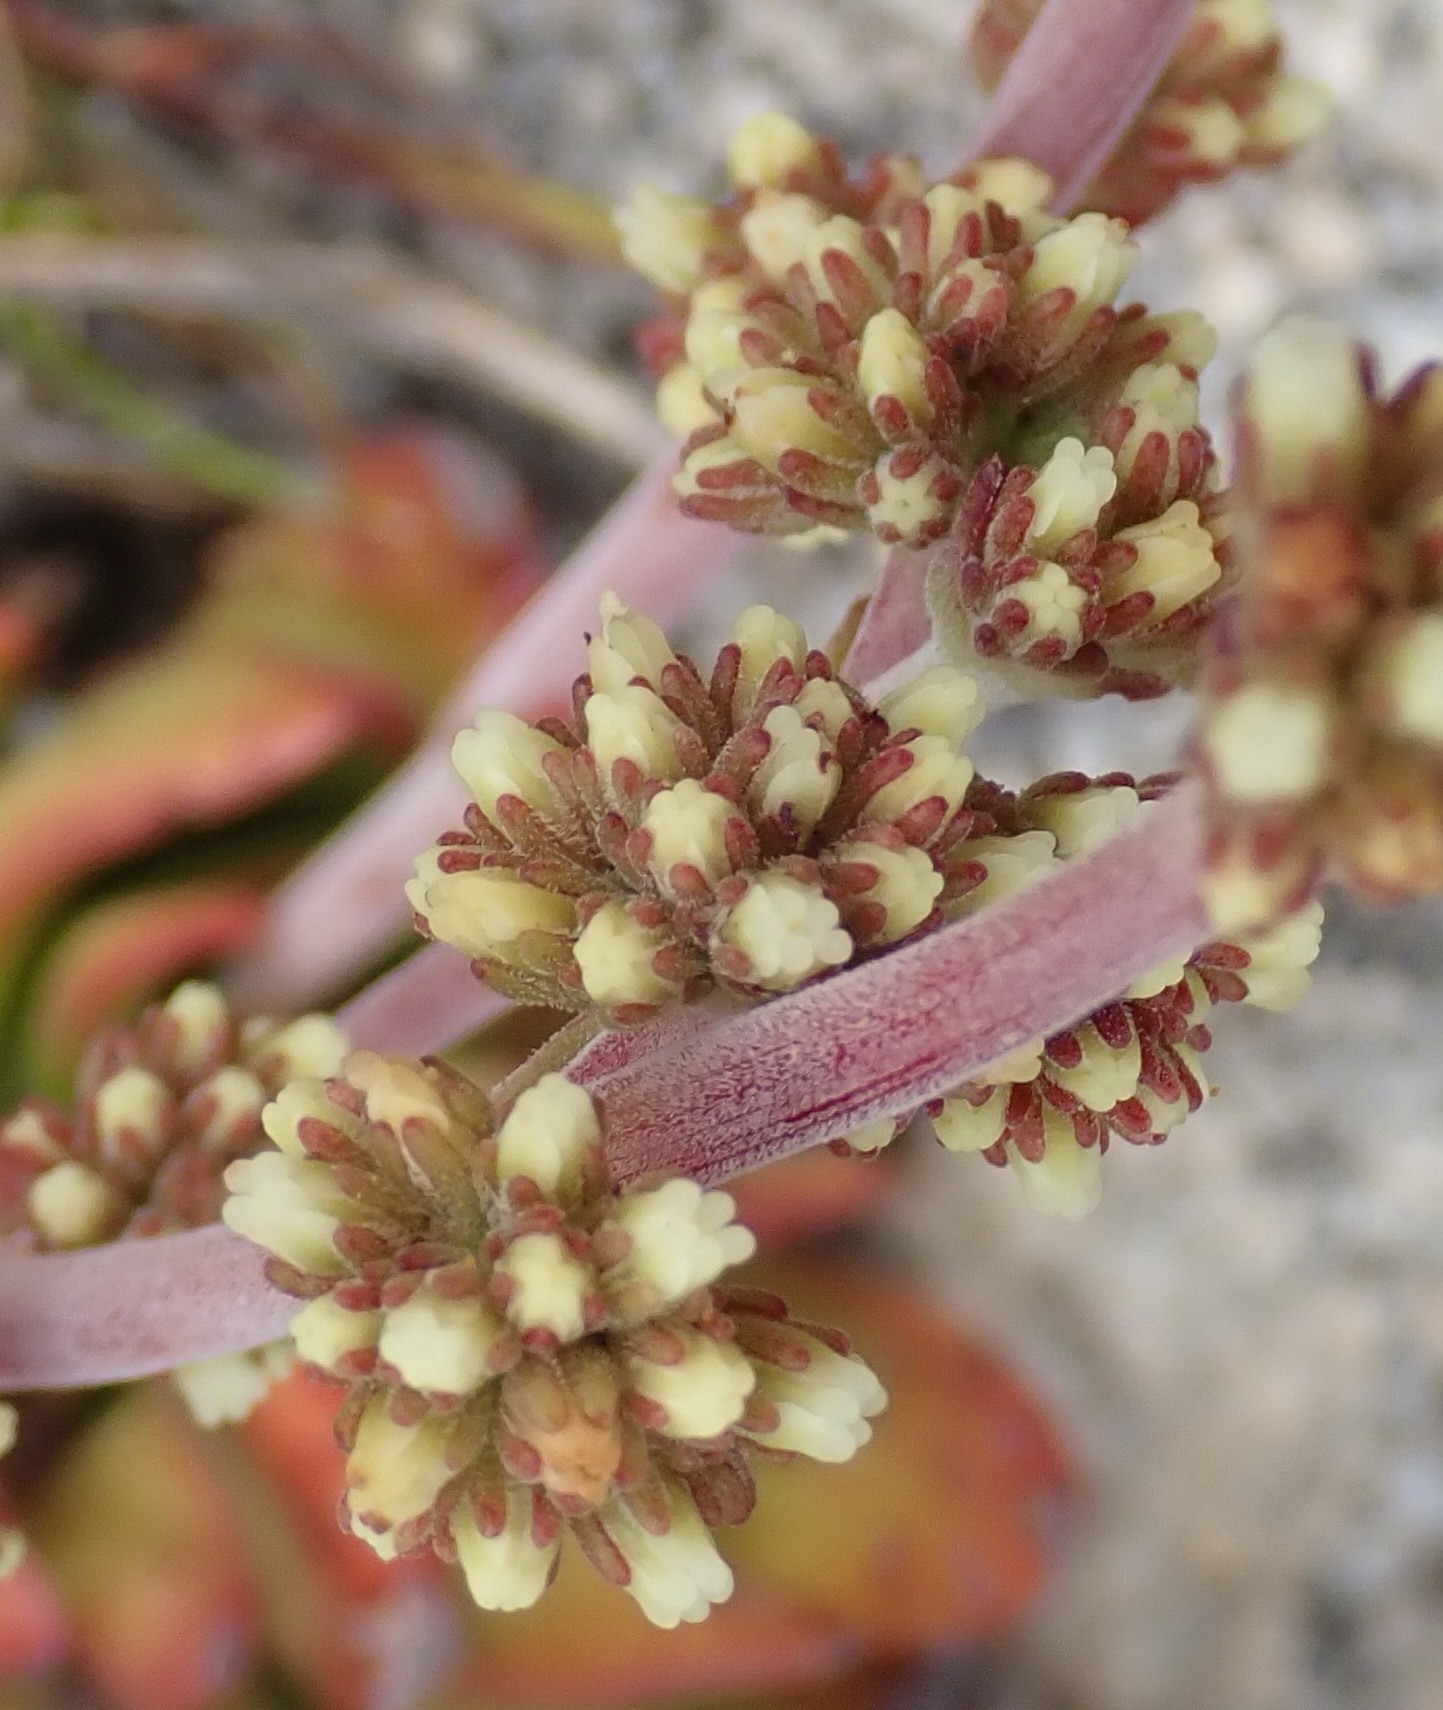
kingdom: Plantae
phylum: Tracheophyta
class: Magnoliopsida
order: Saxifragales
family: Crassulaceae
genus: Crassula
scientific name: Crassula nudicaulis
